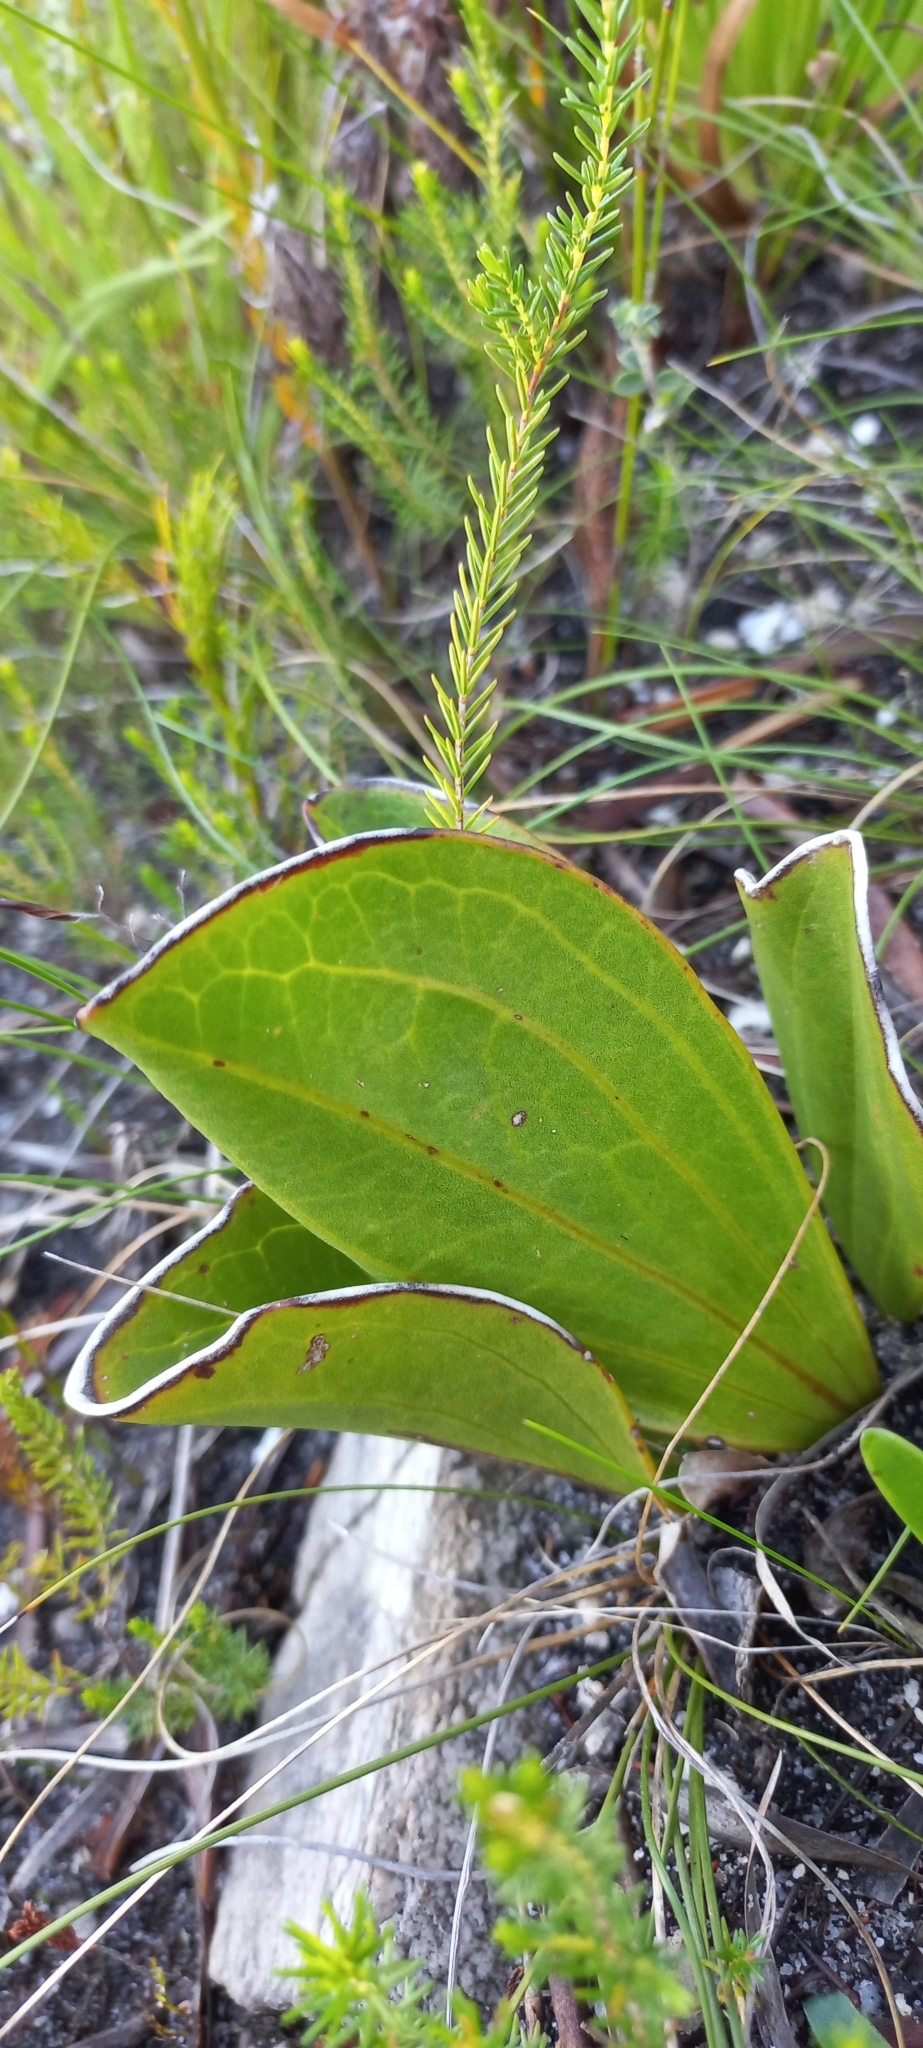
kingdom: Plantae
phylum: Tracheophyta
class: Magnoliopsida
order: Asterales
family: Asteraceae
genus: Mairia
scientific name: Mairia coriacea
